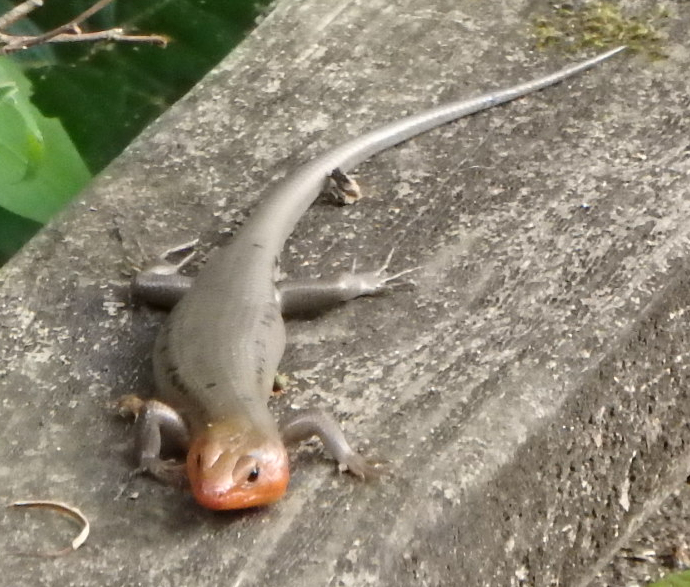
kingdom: Animalia
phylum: Chordata
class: Squamata
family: Scincidae
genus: Plestiodon
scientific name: Plestiodon fasciatus
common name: Five-lined skink
